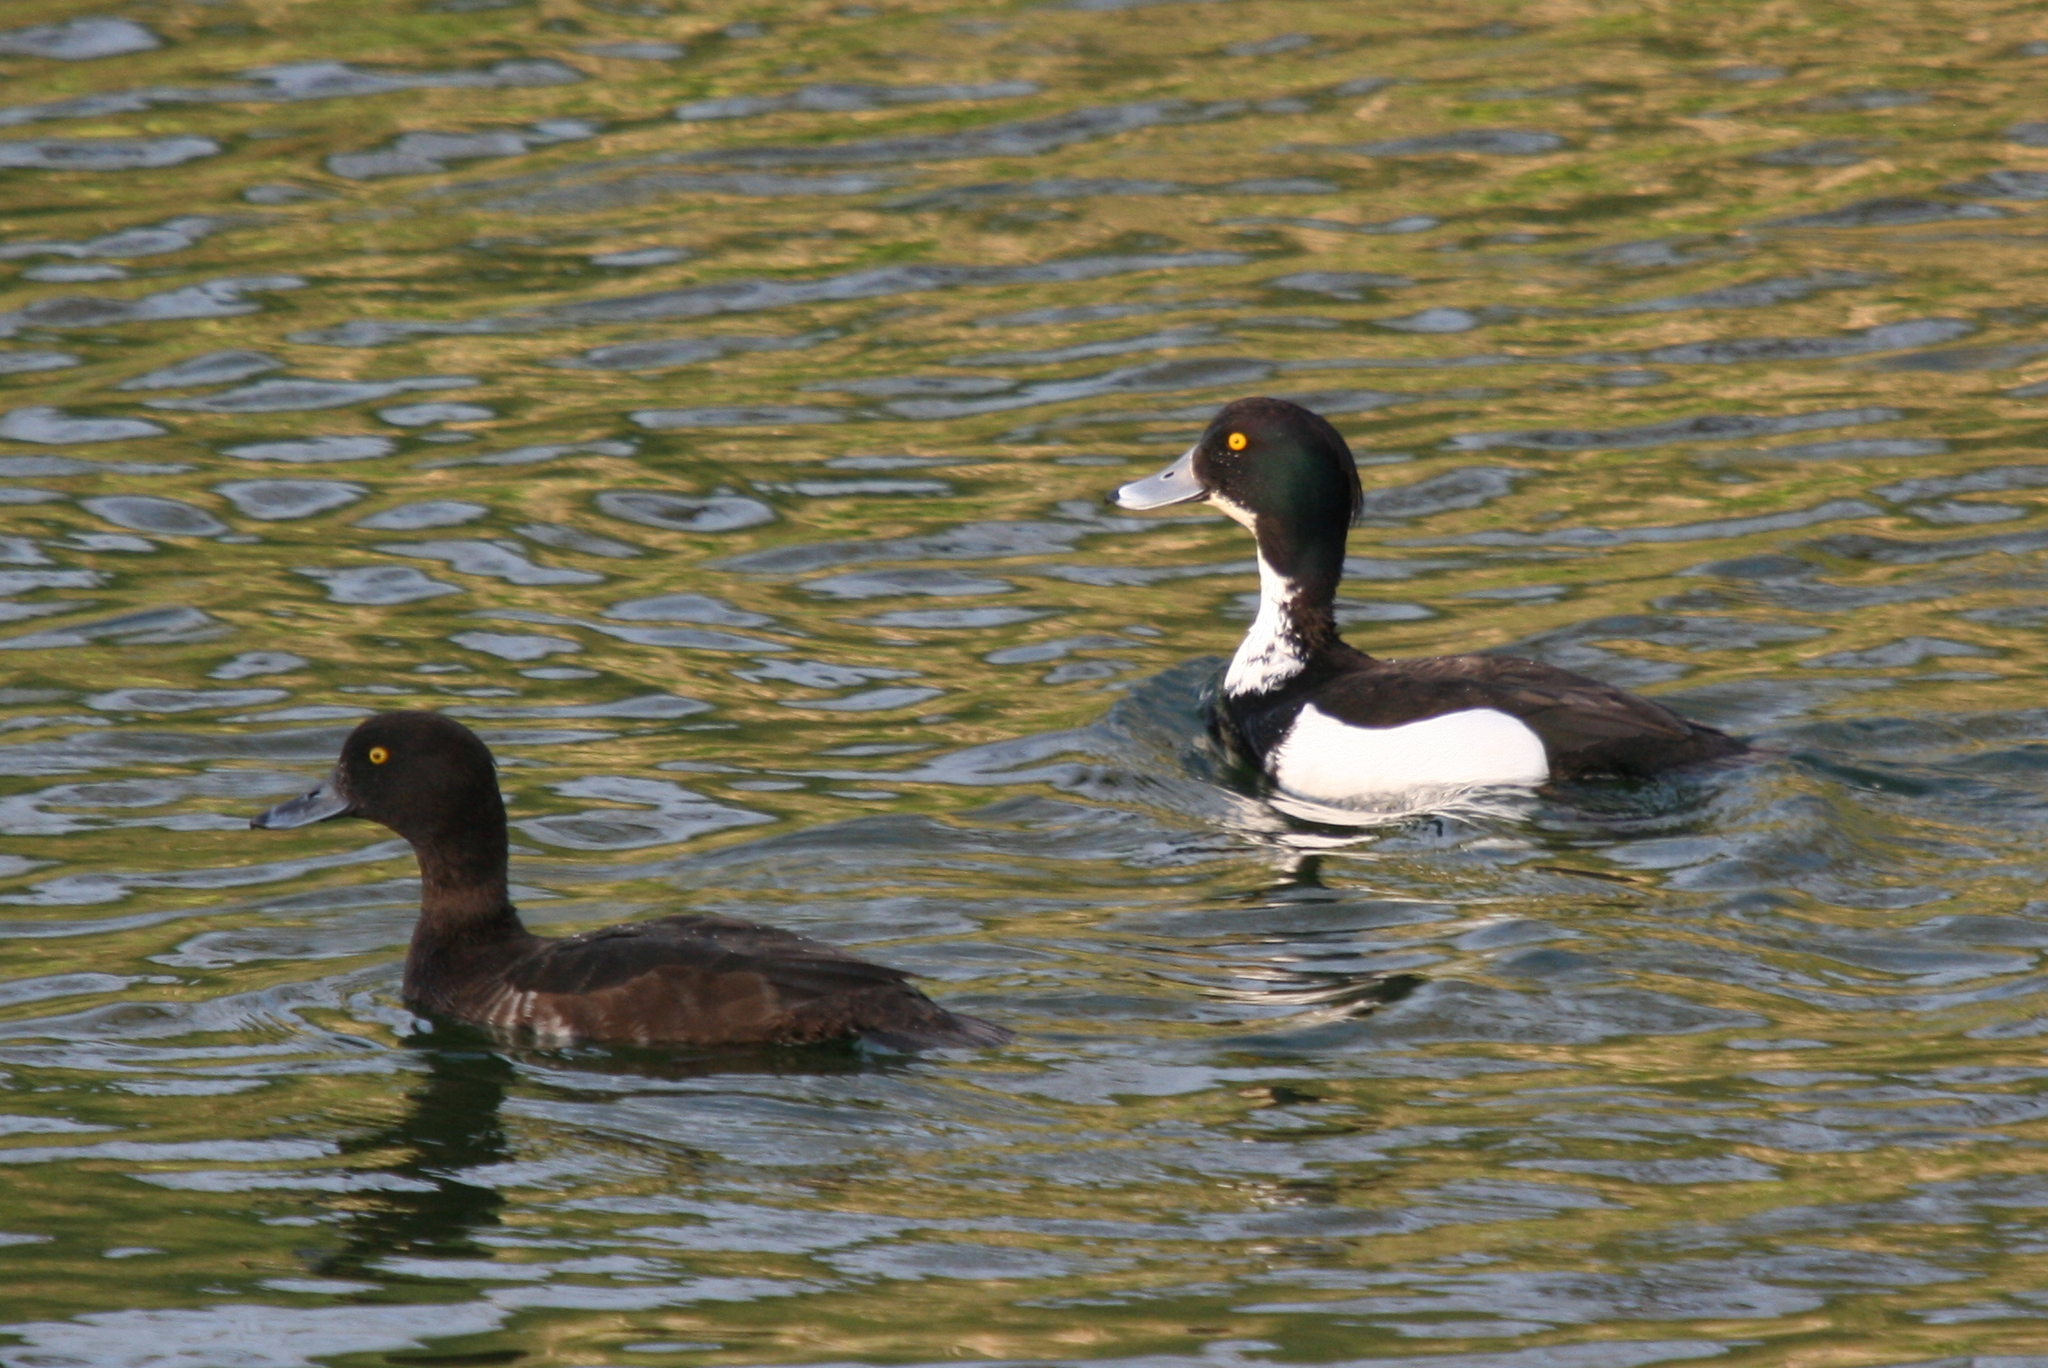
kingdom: Animalia
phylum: Chordata
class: Aves
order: Anseriformes
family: Anatidae
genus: Aythya
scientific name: Aythya fuligula
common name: Tufted duck
